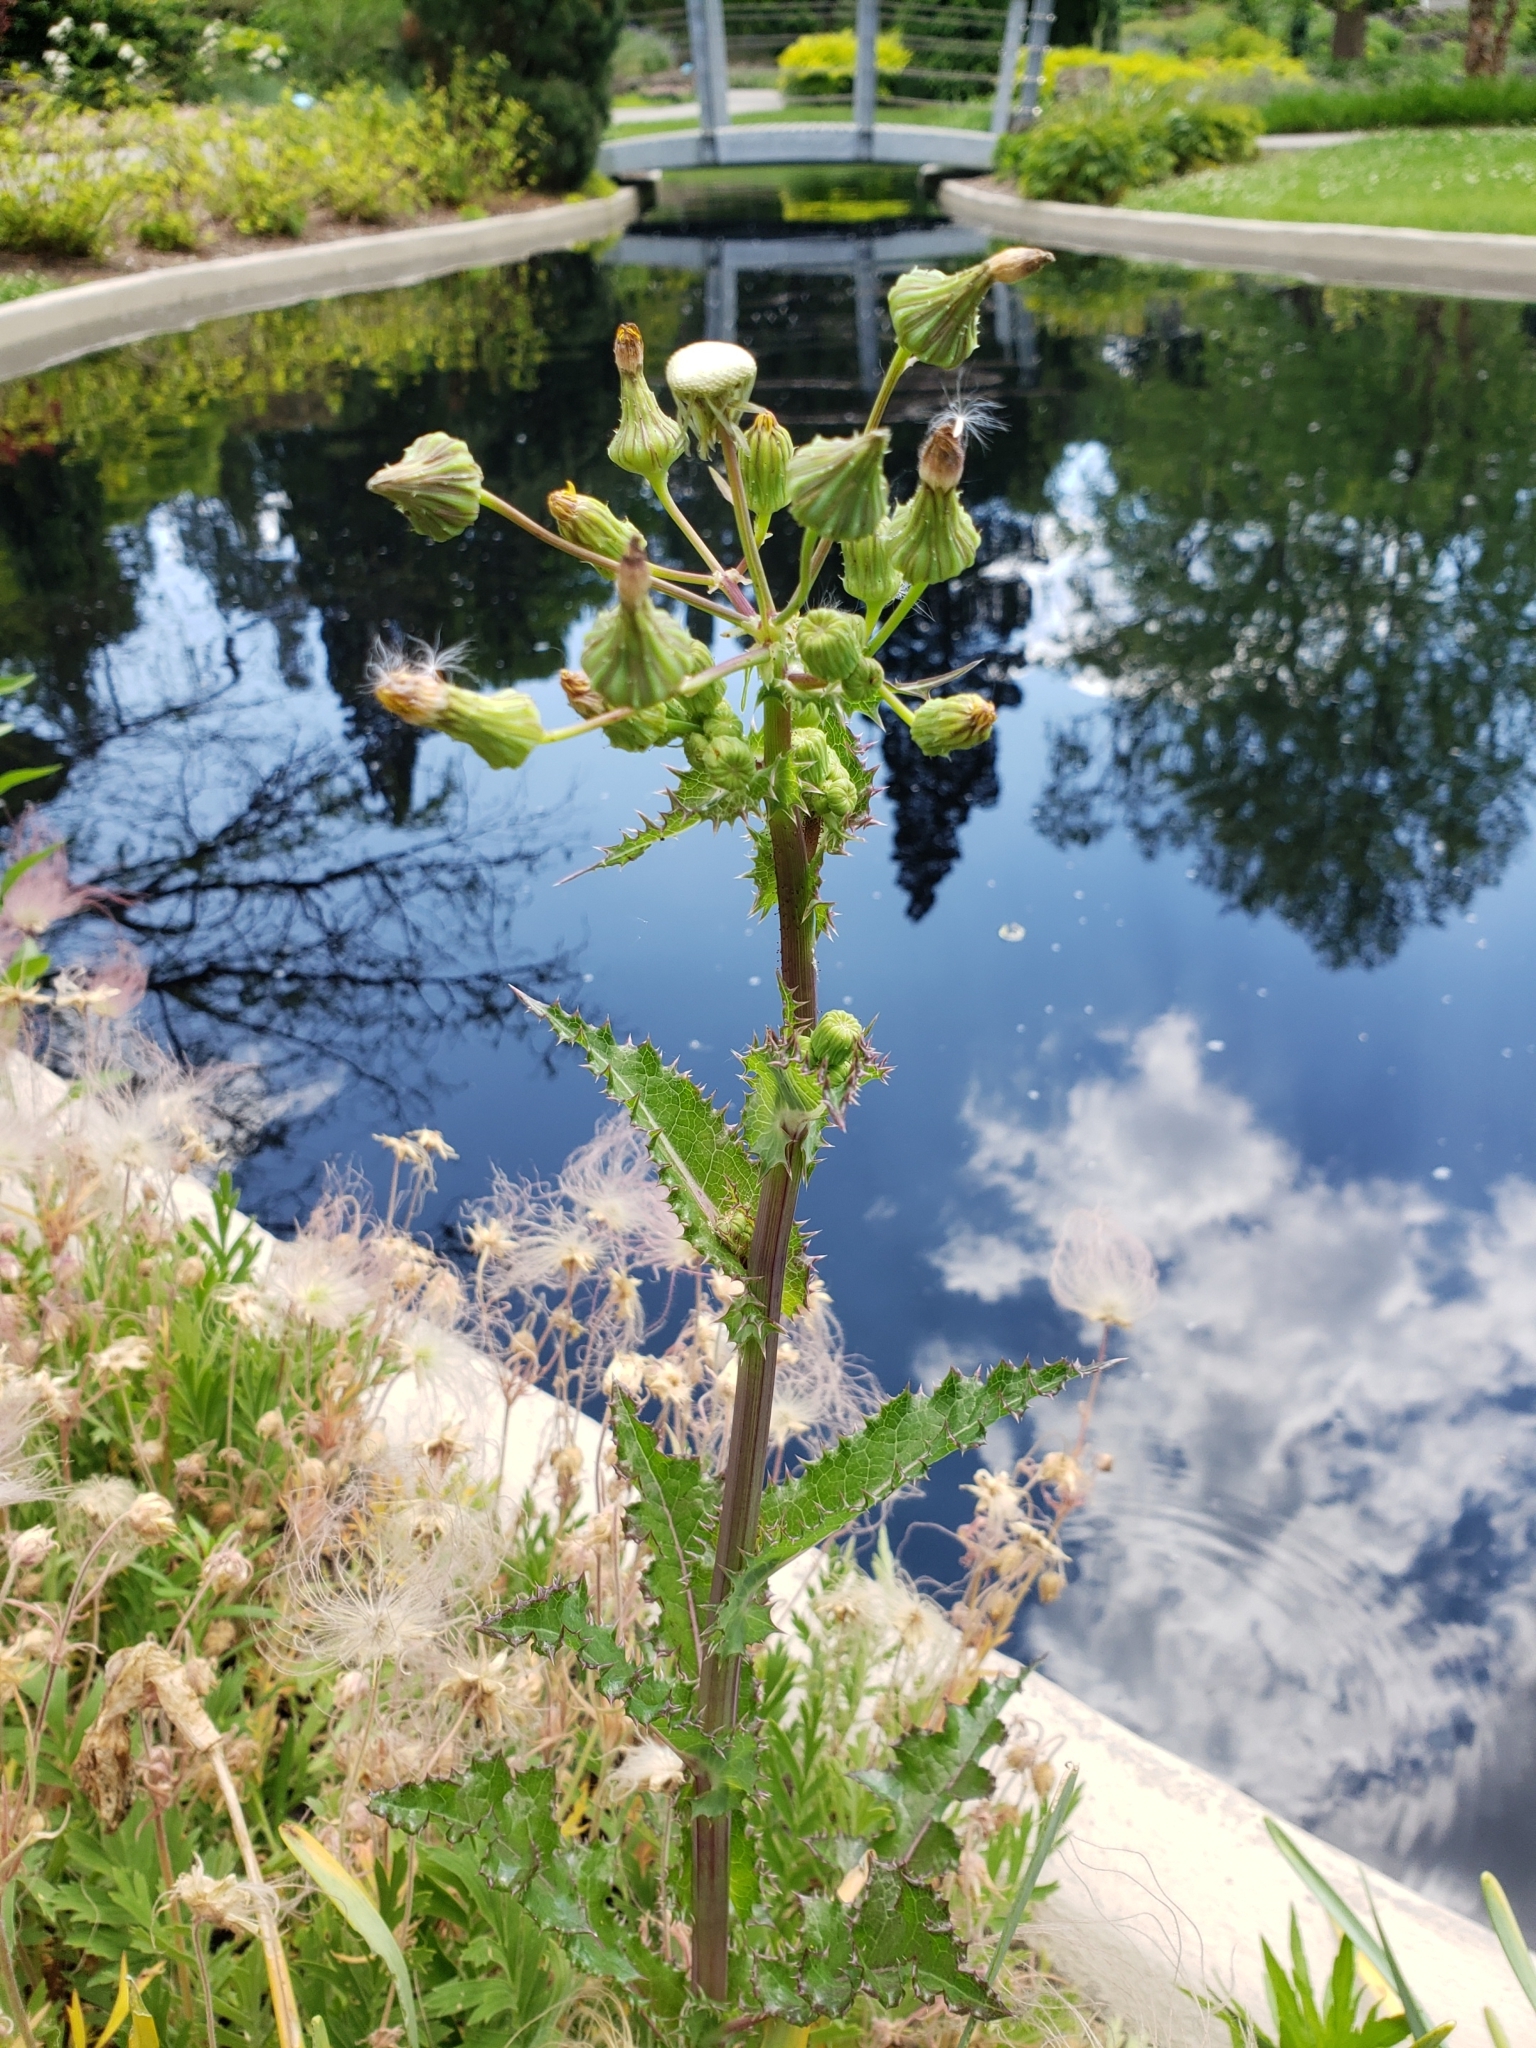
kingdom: Plantae
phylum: Tracheophyta
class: Magnoliopsida
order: Asterales
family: Asteraceae
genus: Sonchus
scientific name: Sonchus asper
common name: Prickly sow-thistle
